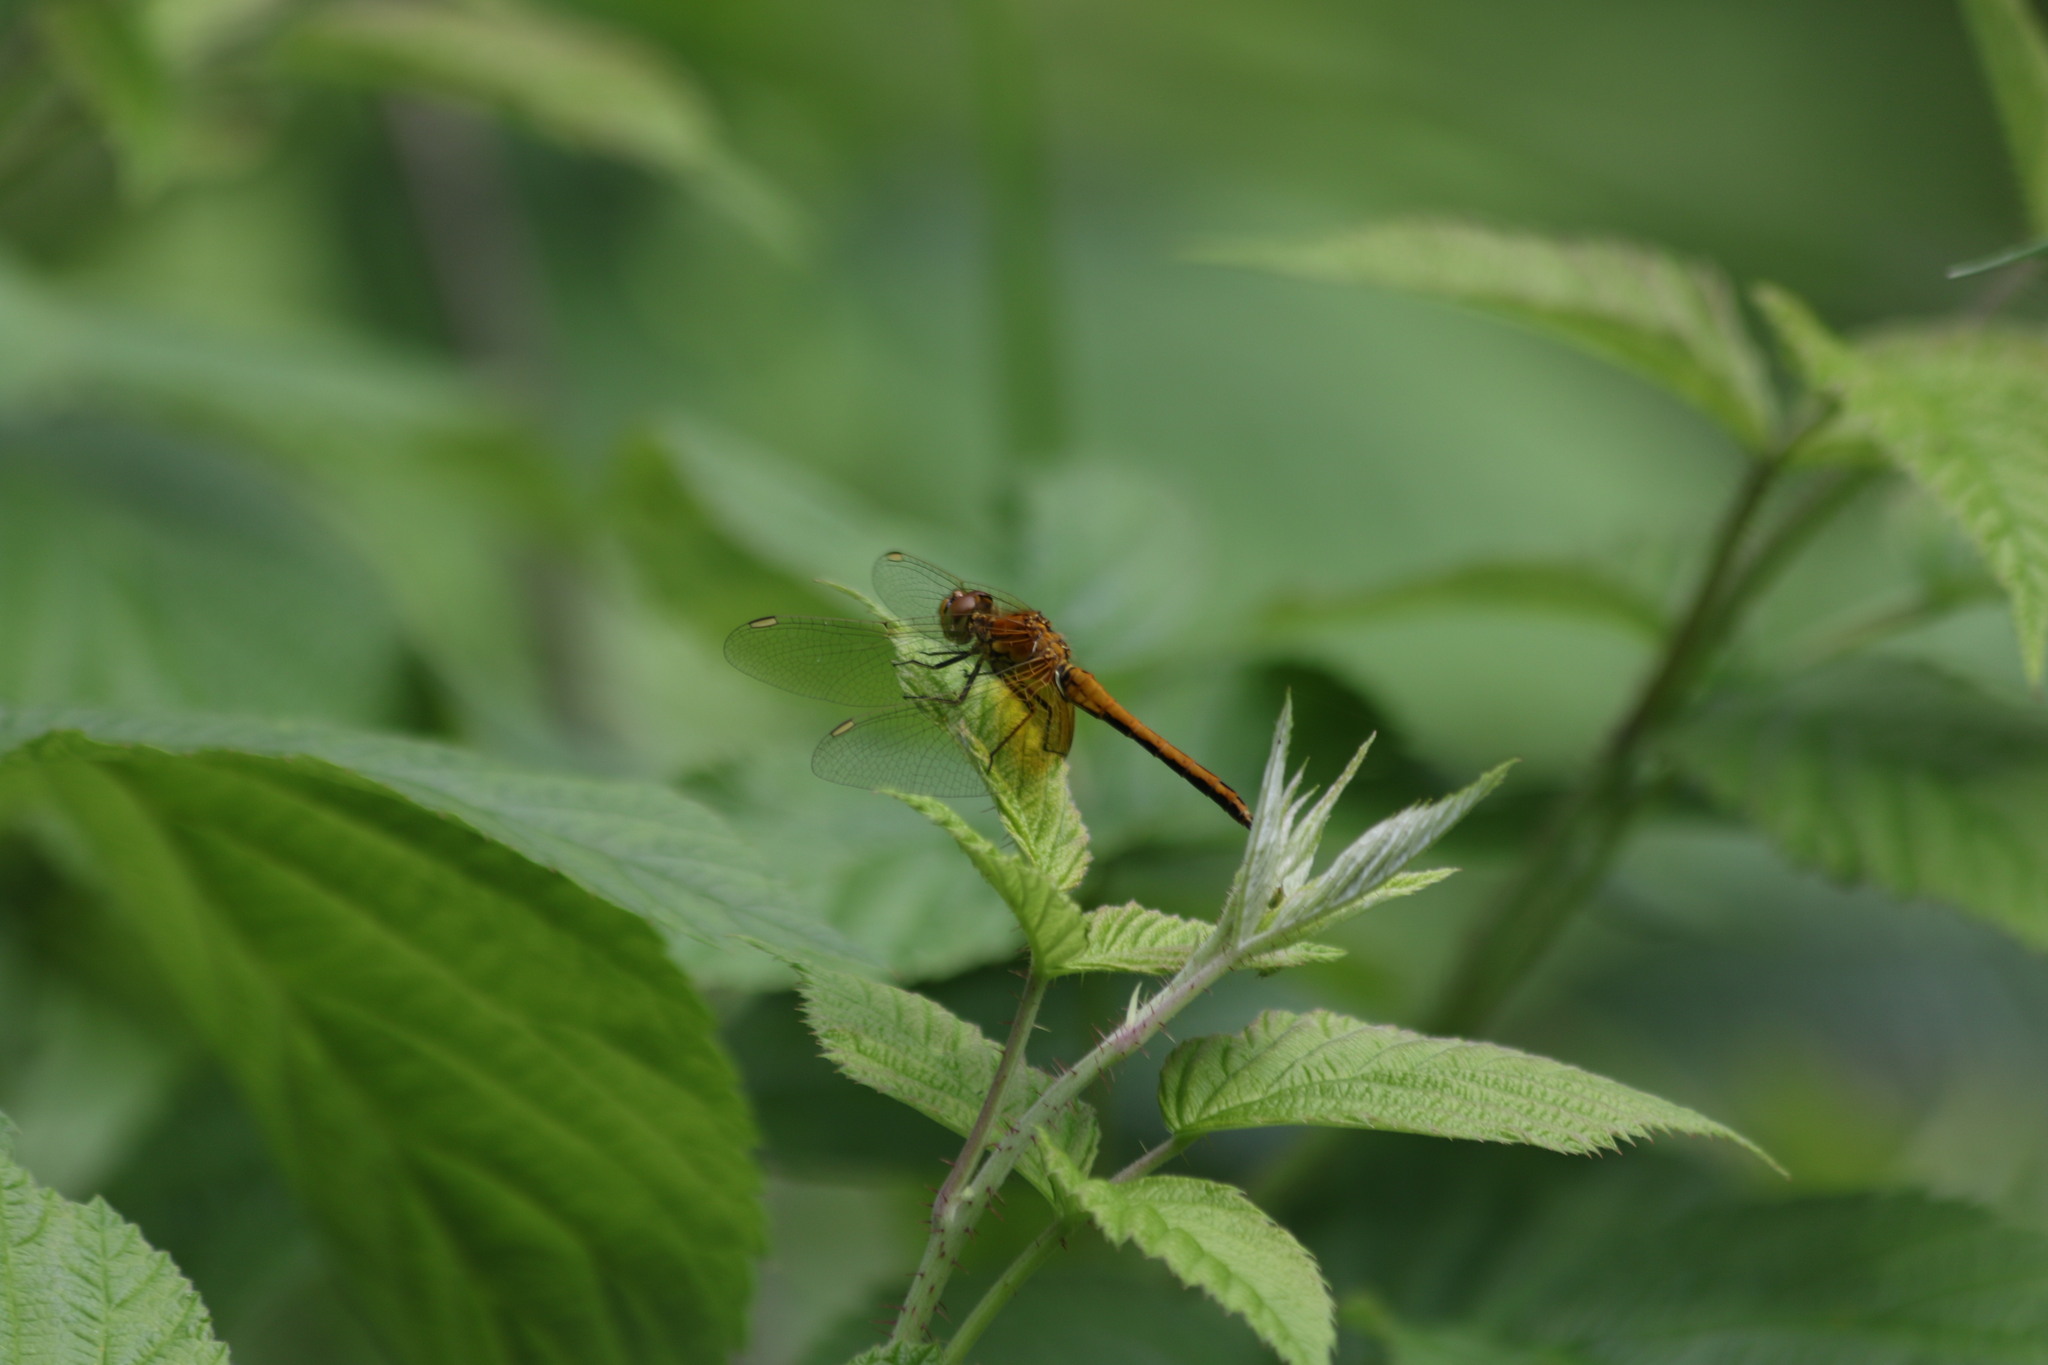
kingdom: Animalia
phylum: Arthropoda
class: Insecta
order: Odonata
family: Libellulidae
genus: Sympetrum
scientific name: Sympetrum flaveolum
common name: Yellow-winged darter
